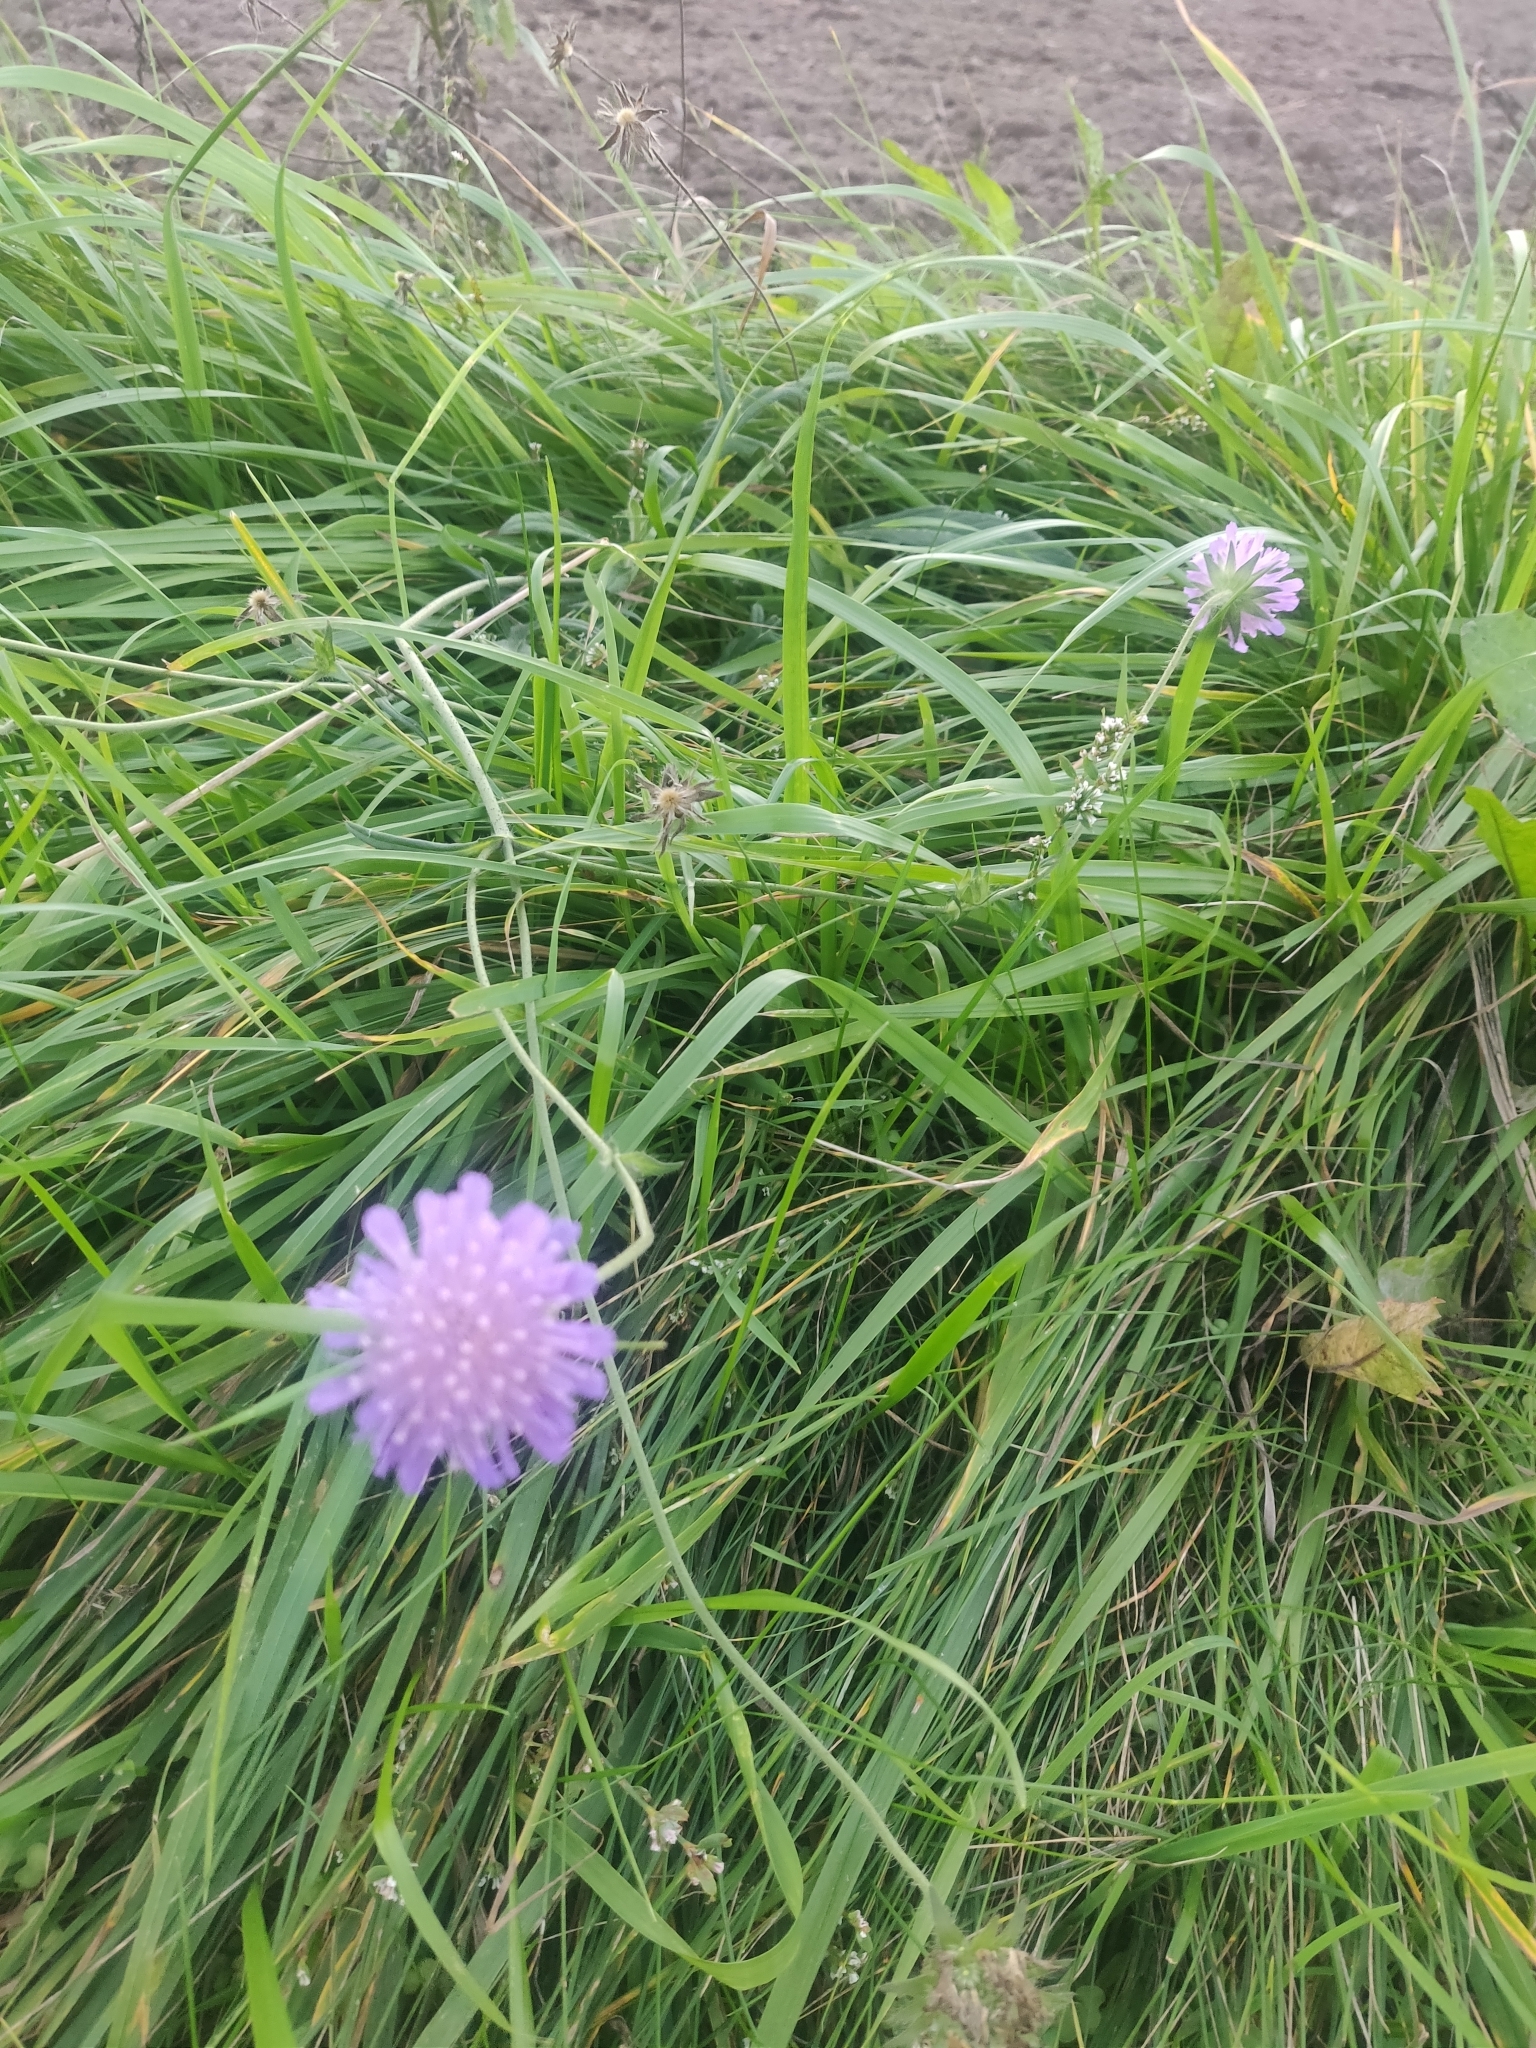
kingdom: Plantae
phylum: Tracheophyta
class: Magnoliopsida
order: Dipsacales
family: Caprifoliaceae
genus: Knautia
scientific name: Knautia arvensis
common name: Field scabiosa
